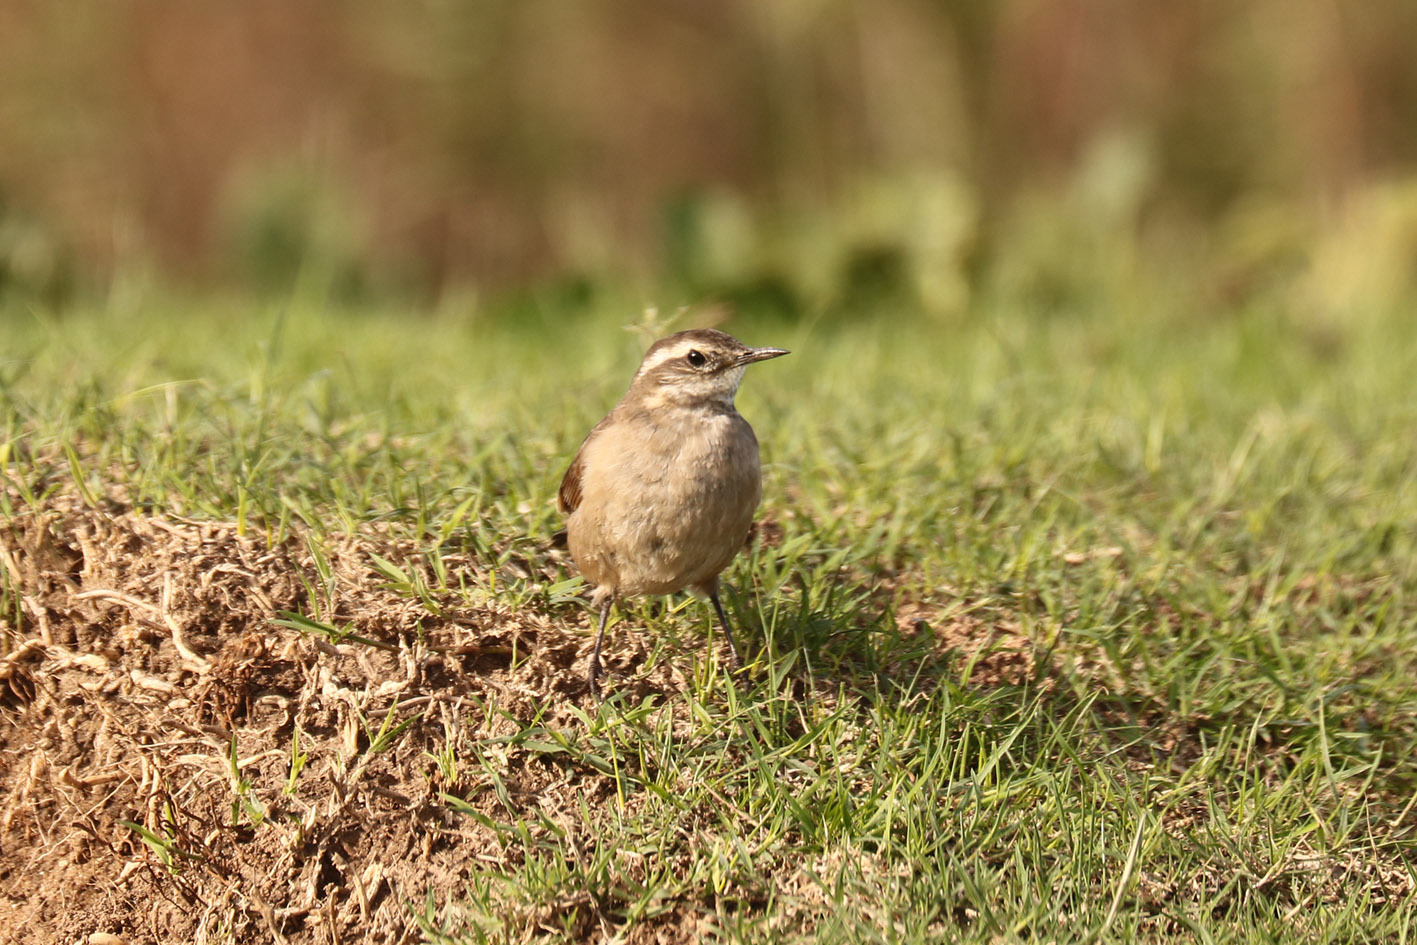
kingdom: Animalia
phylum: Chordata
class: Aves
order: Passeriformes
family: Furnariidae
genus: Cinclodes
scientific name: Cinclodes fuscus
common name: Buff-winged cinclodes
